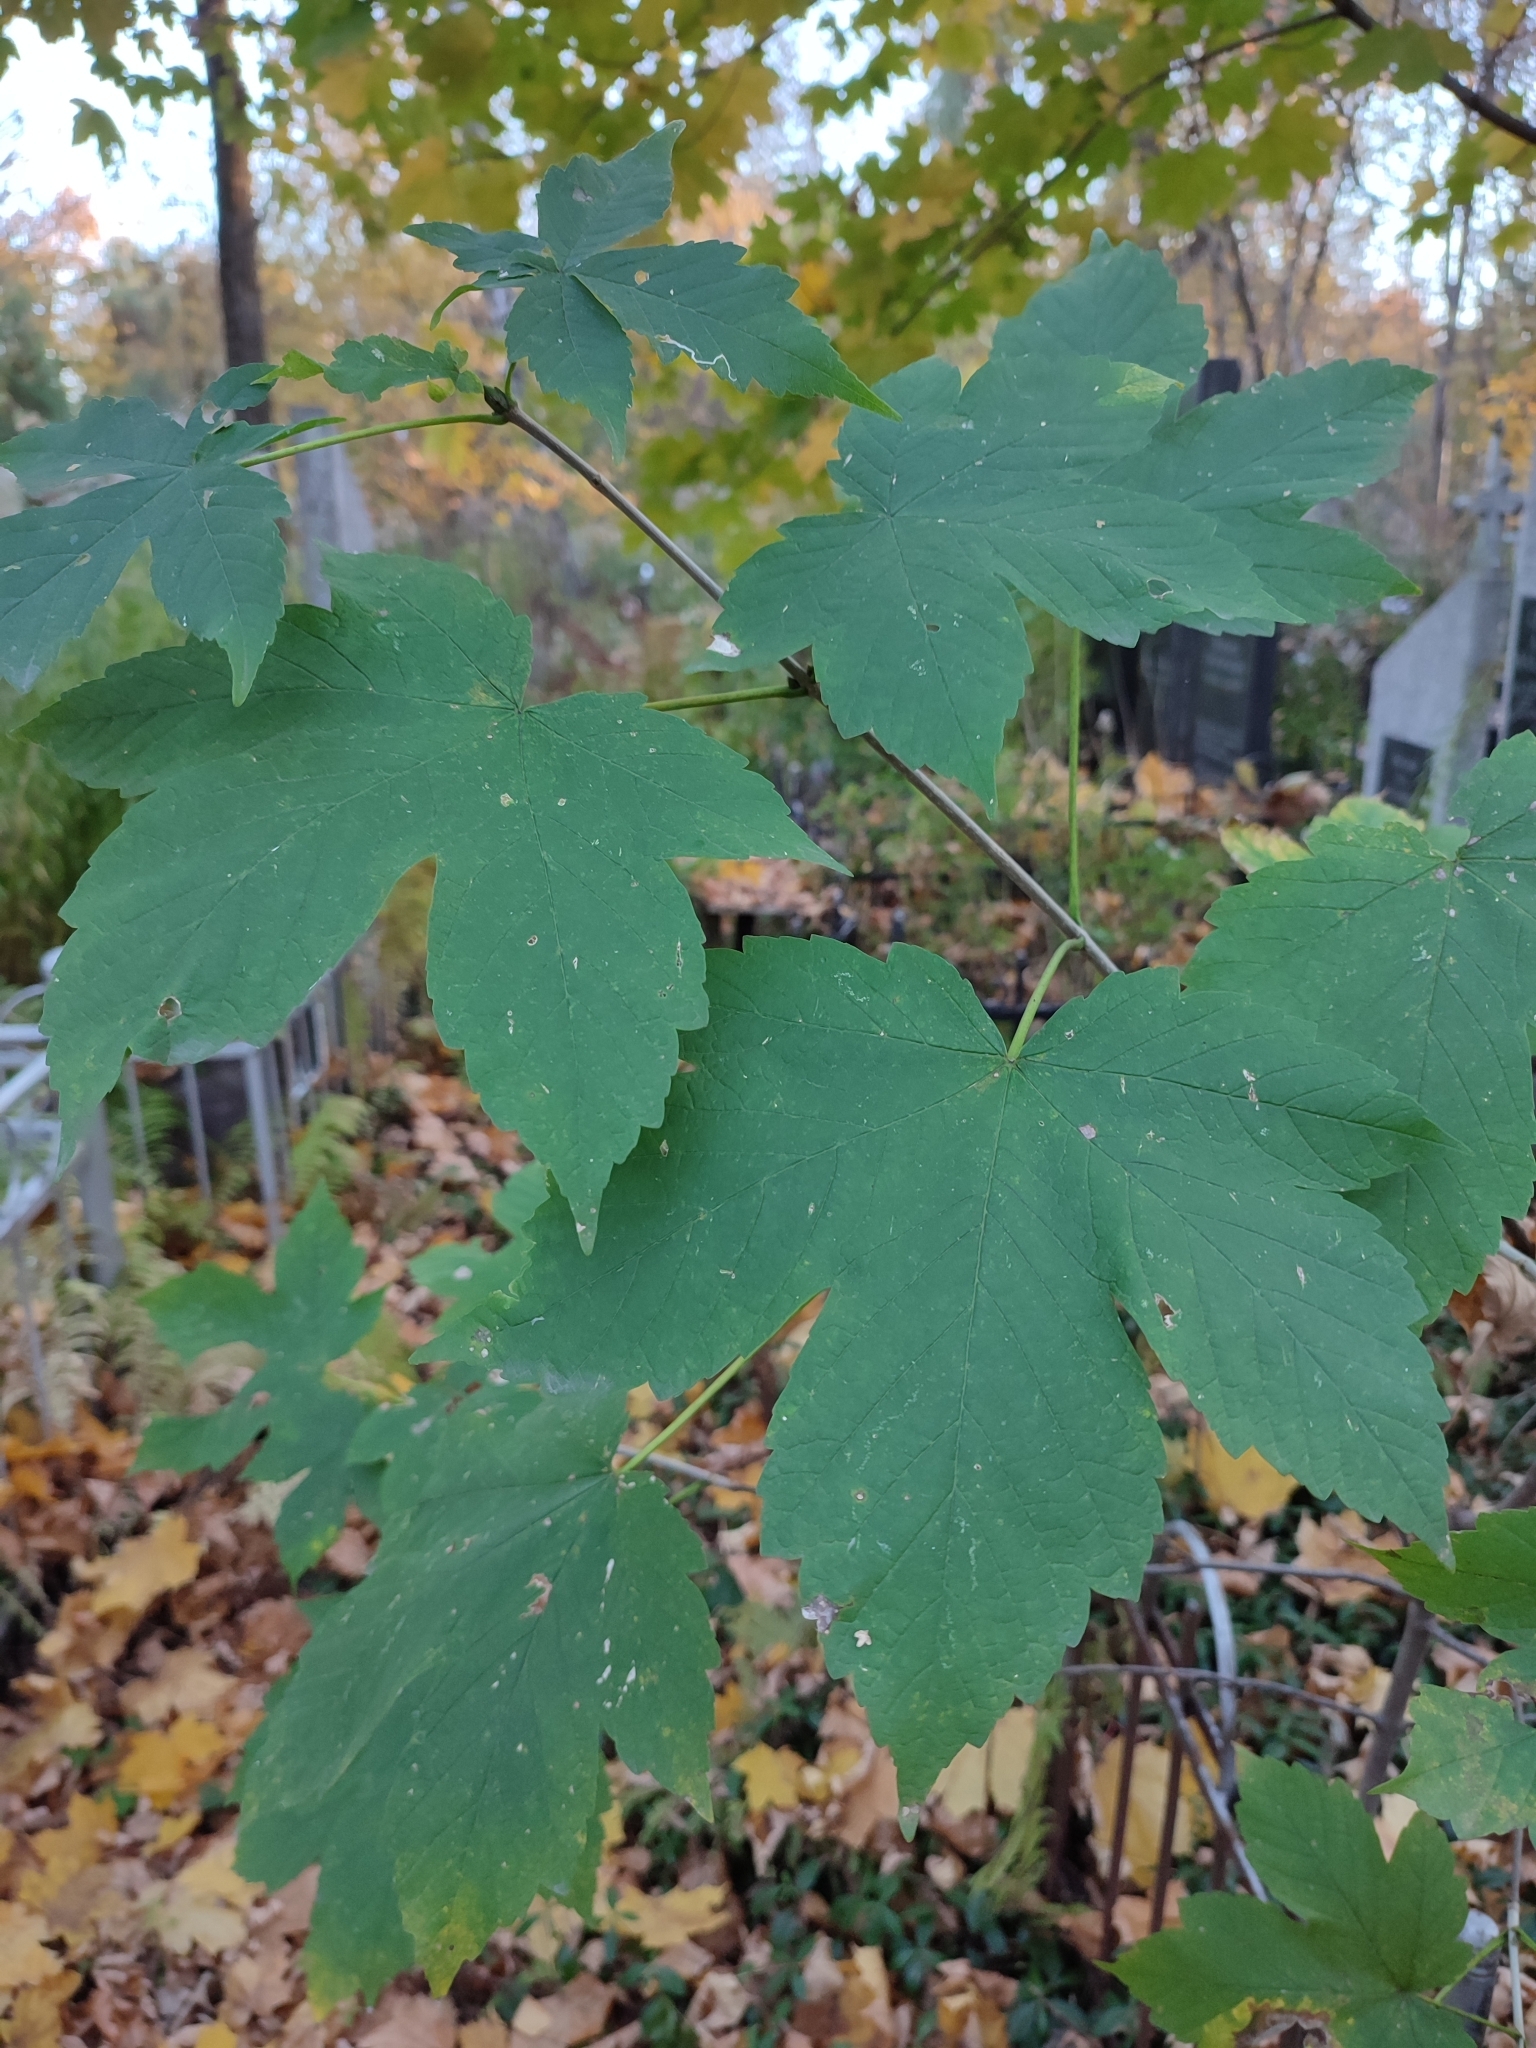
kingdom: Plantae
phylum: Tracheophyta
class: Magnoliopsida
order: Sapindales
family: Sapindaceae
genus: Acer
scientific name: Acer pseudoplatanus
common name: Sycamore
